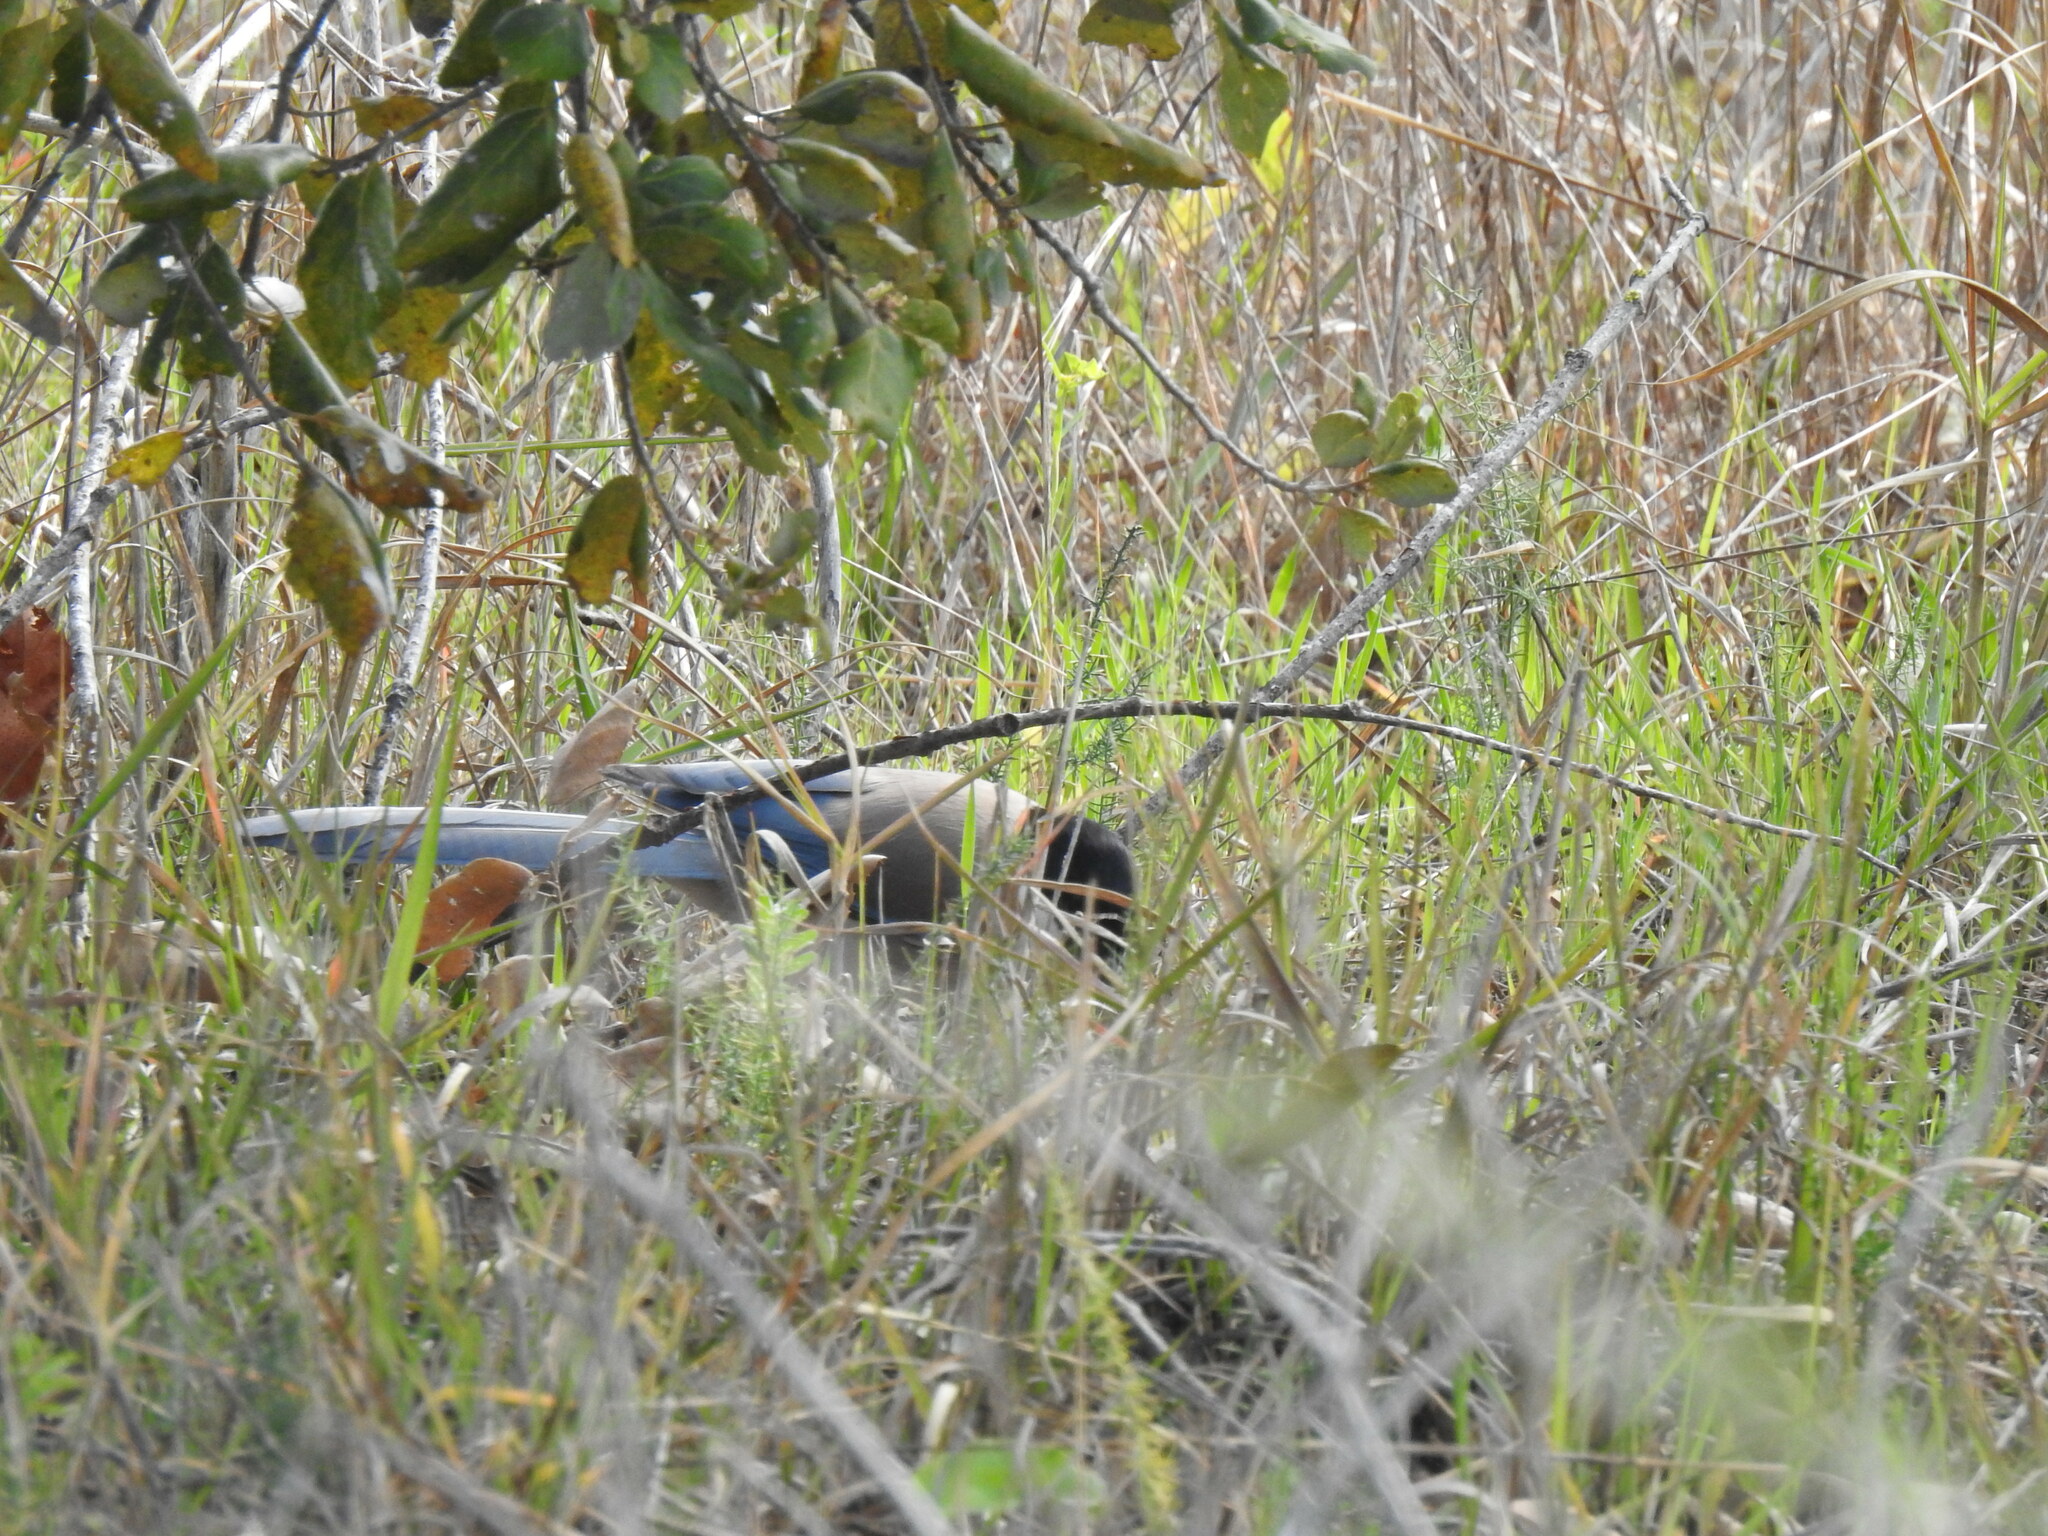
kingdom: Animalia
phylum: Chordata
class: Aves
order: Passeriformes
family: Corvidae
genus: Cyanopica
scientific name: Cyanopica cooki
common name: Iberian magpie
